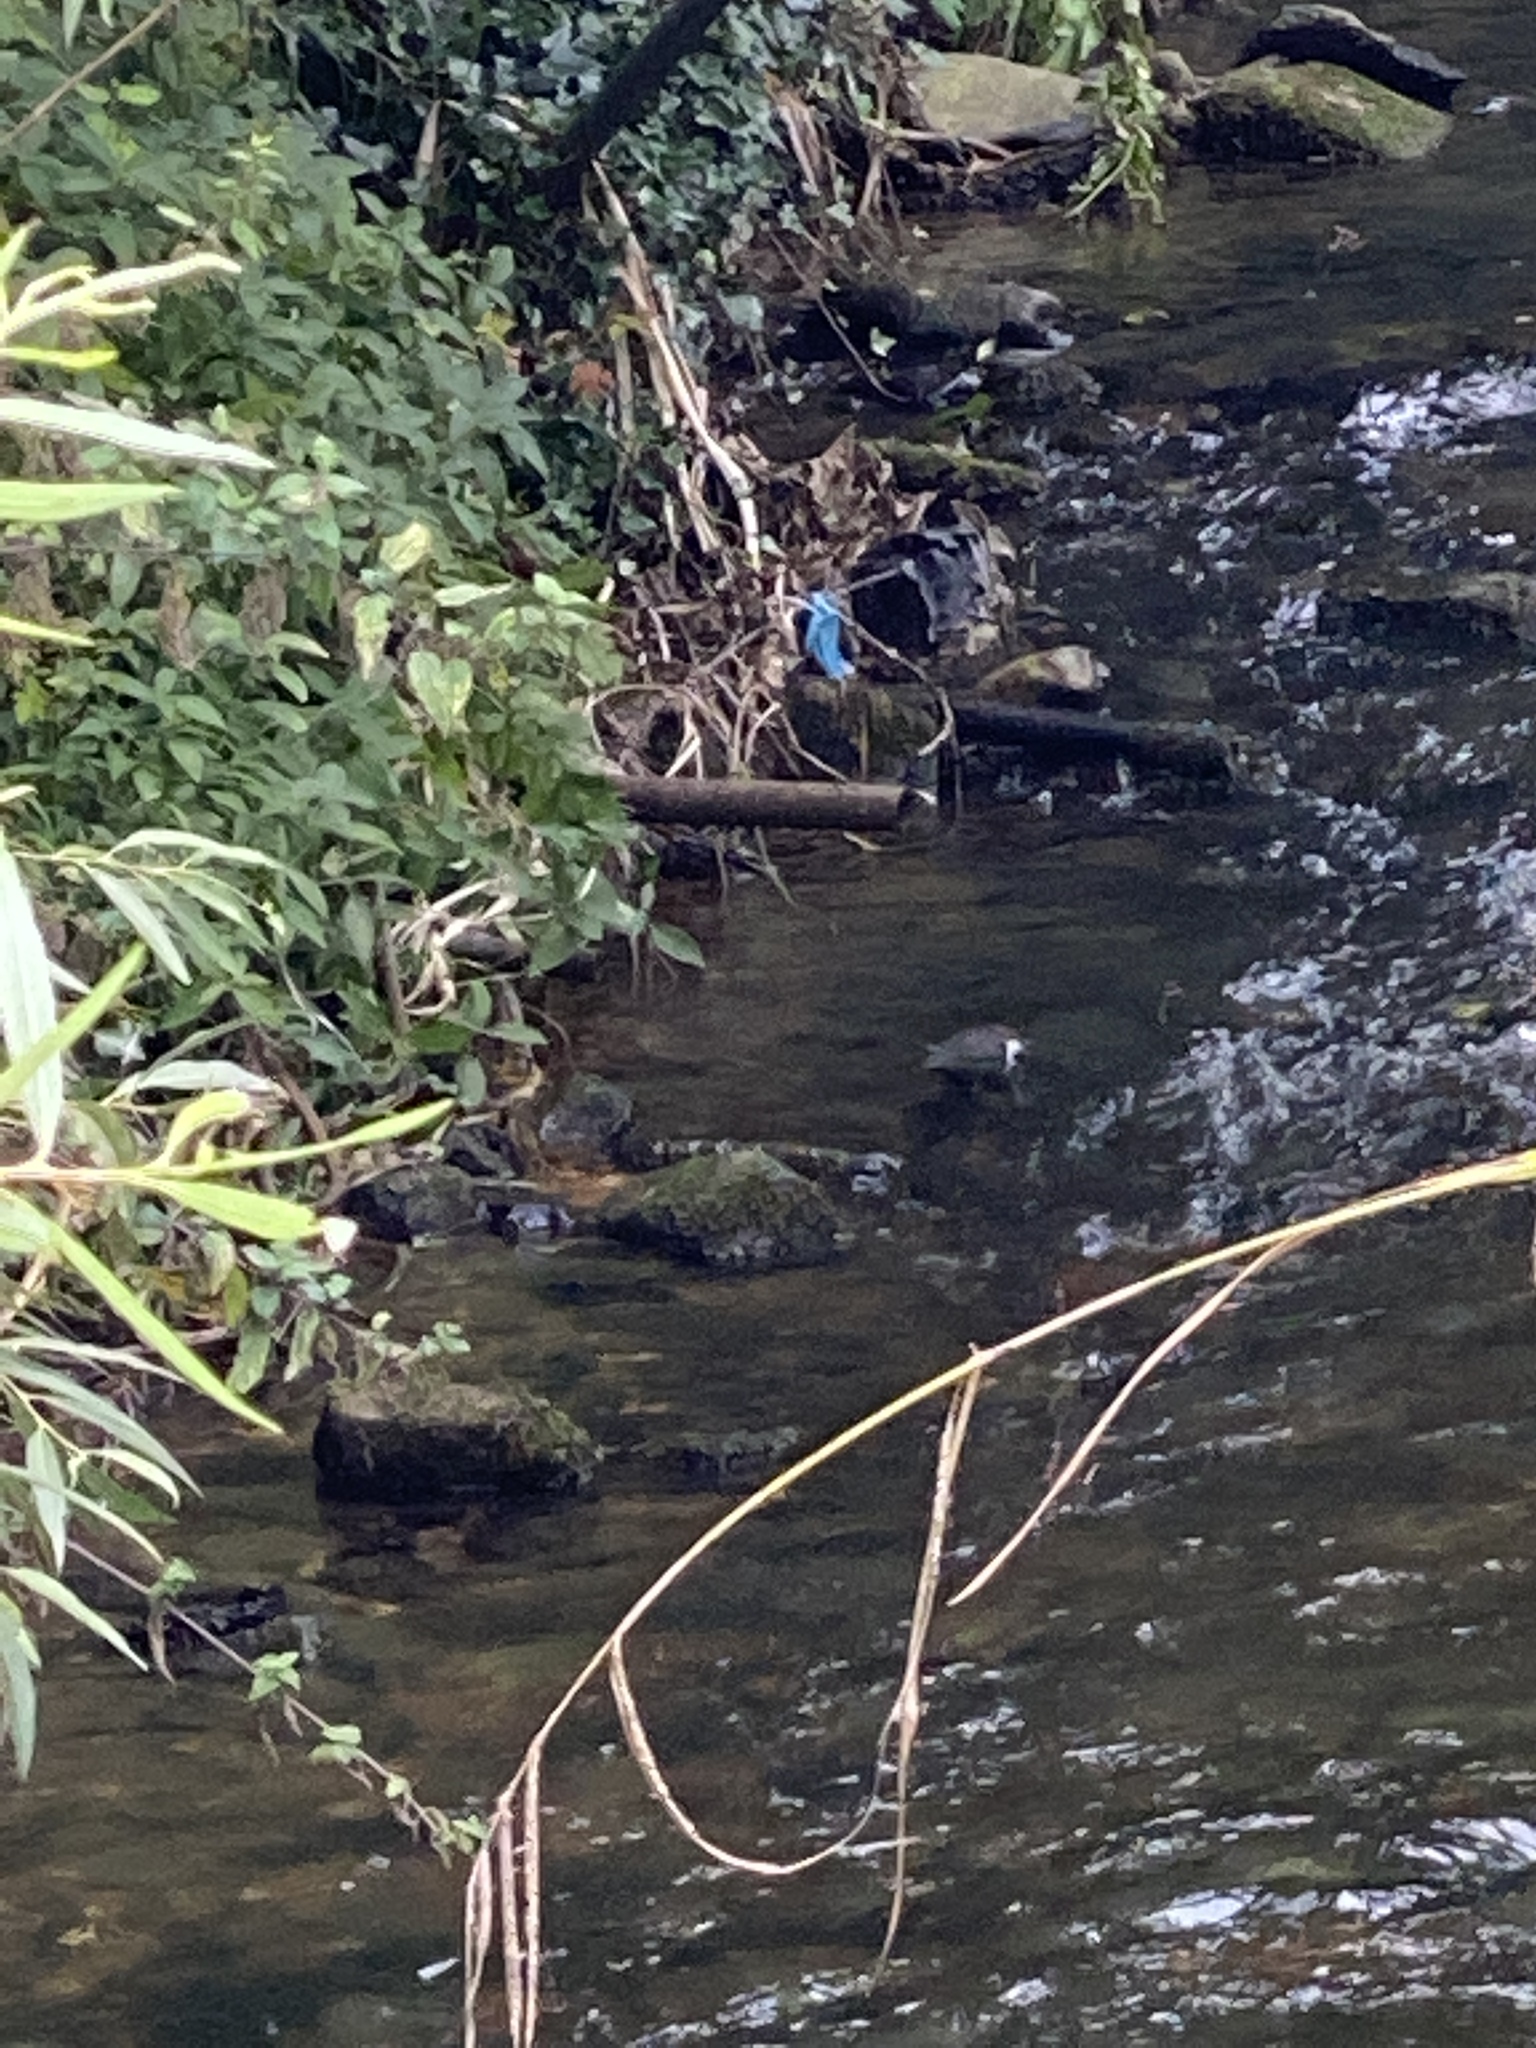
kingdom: Animalia
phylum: Chordata
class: Aves
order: Passeriformes
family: Cinclidae
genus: Cinclus
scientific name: Cinclus cinclus
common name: White-throated dipper
